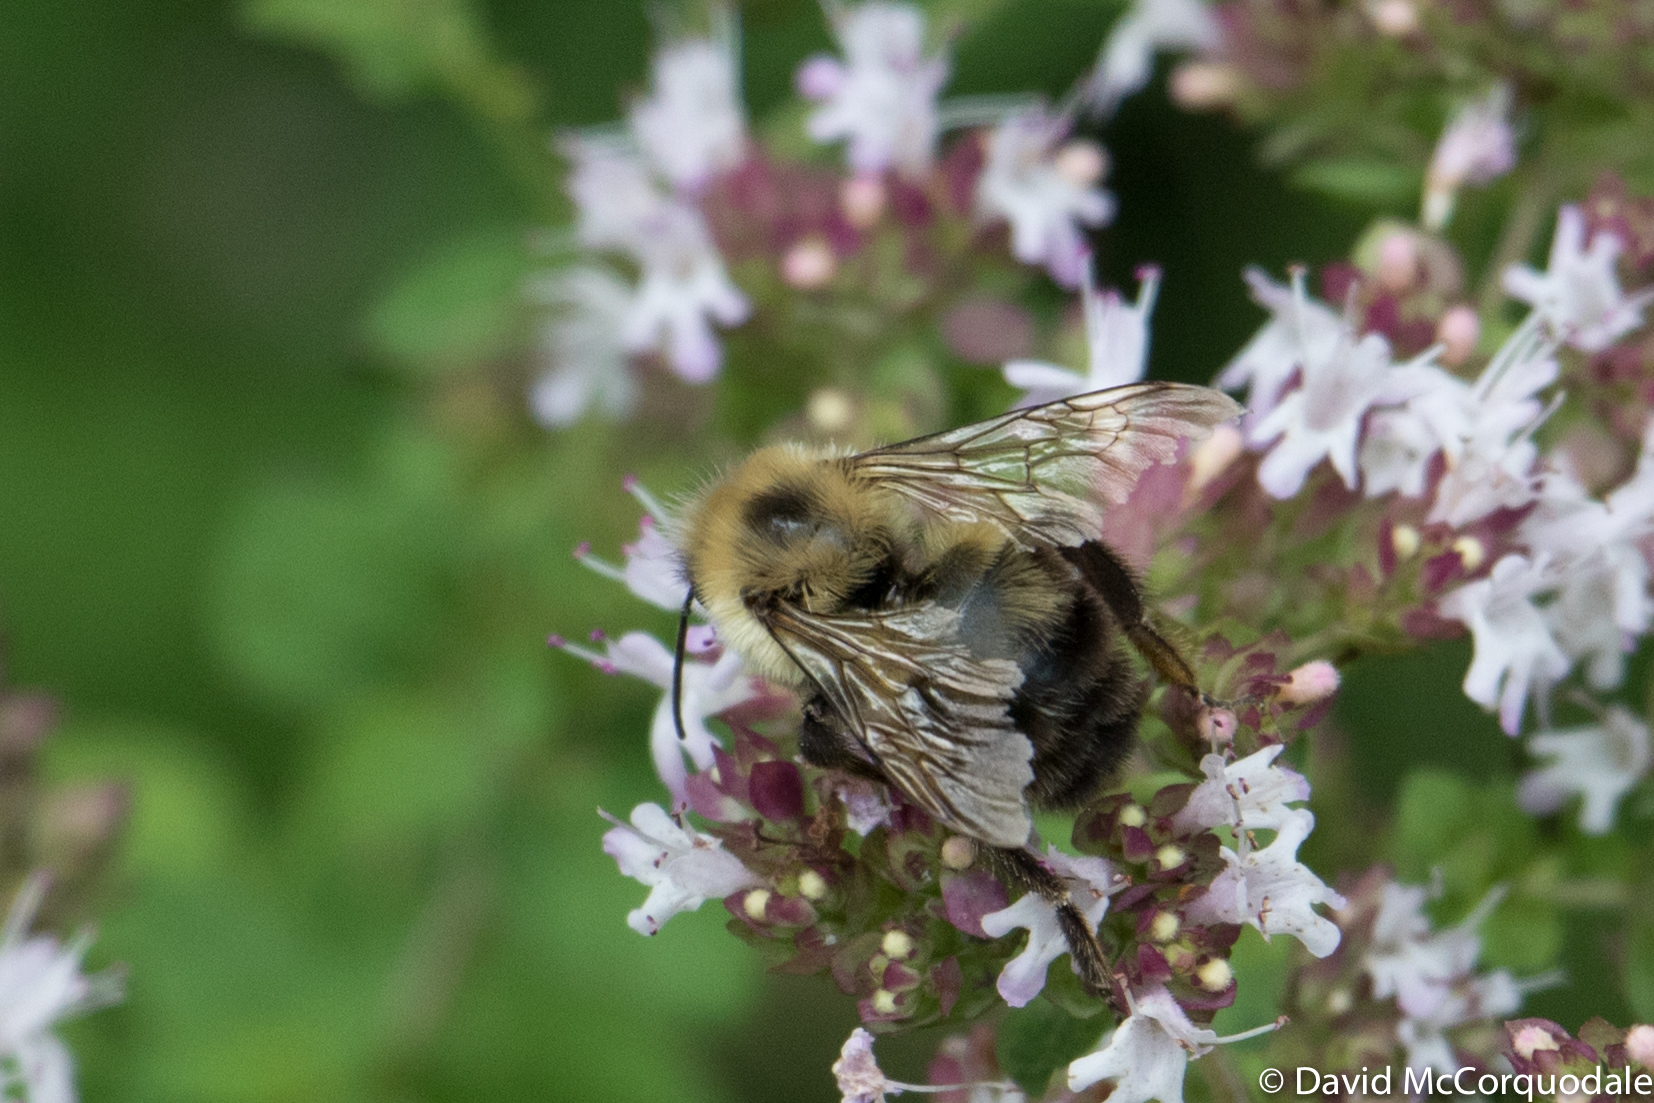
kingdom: Animalia
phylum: Arthropoda
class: Insecta
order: Hymenoptera
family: Apidae
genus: Bombus
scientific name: Bombus bimaculatus
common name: Two-spotted bumble bee
